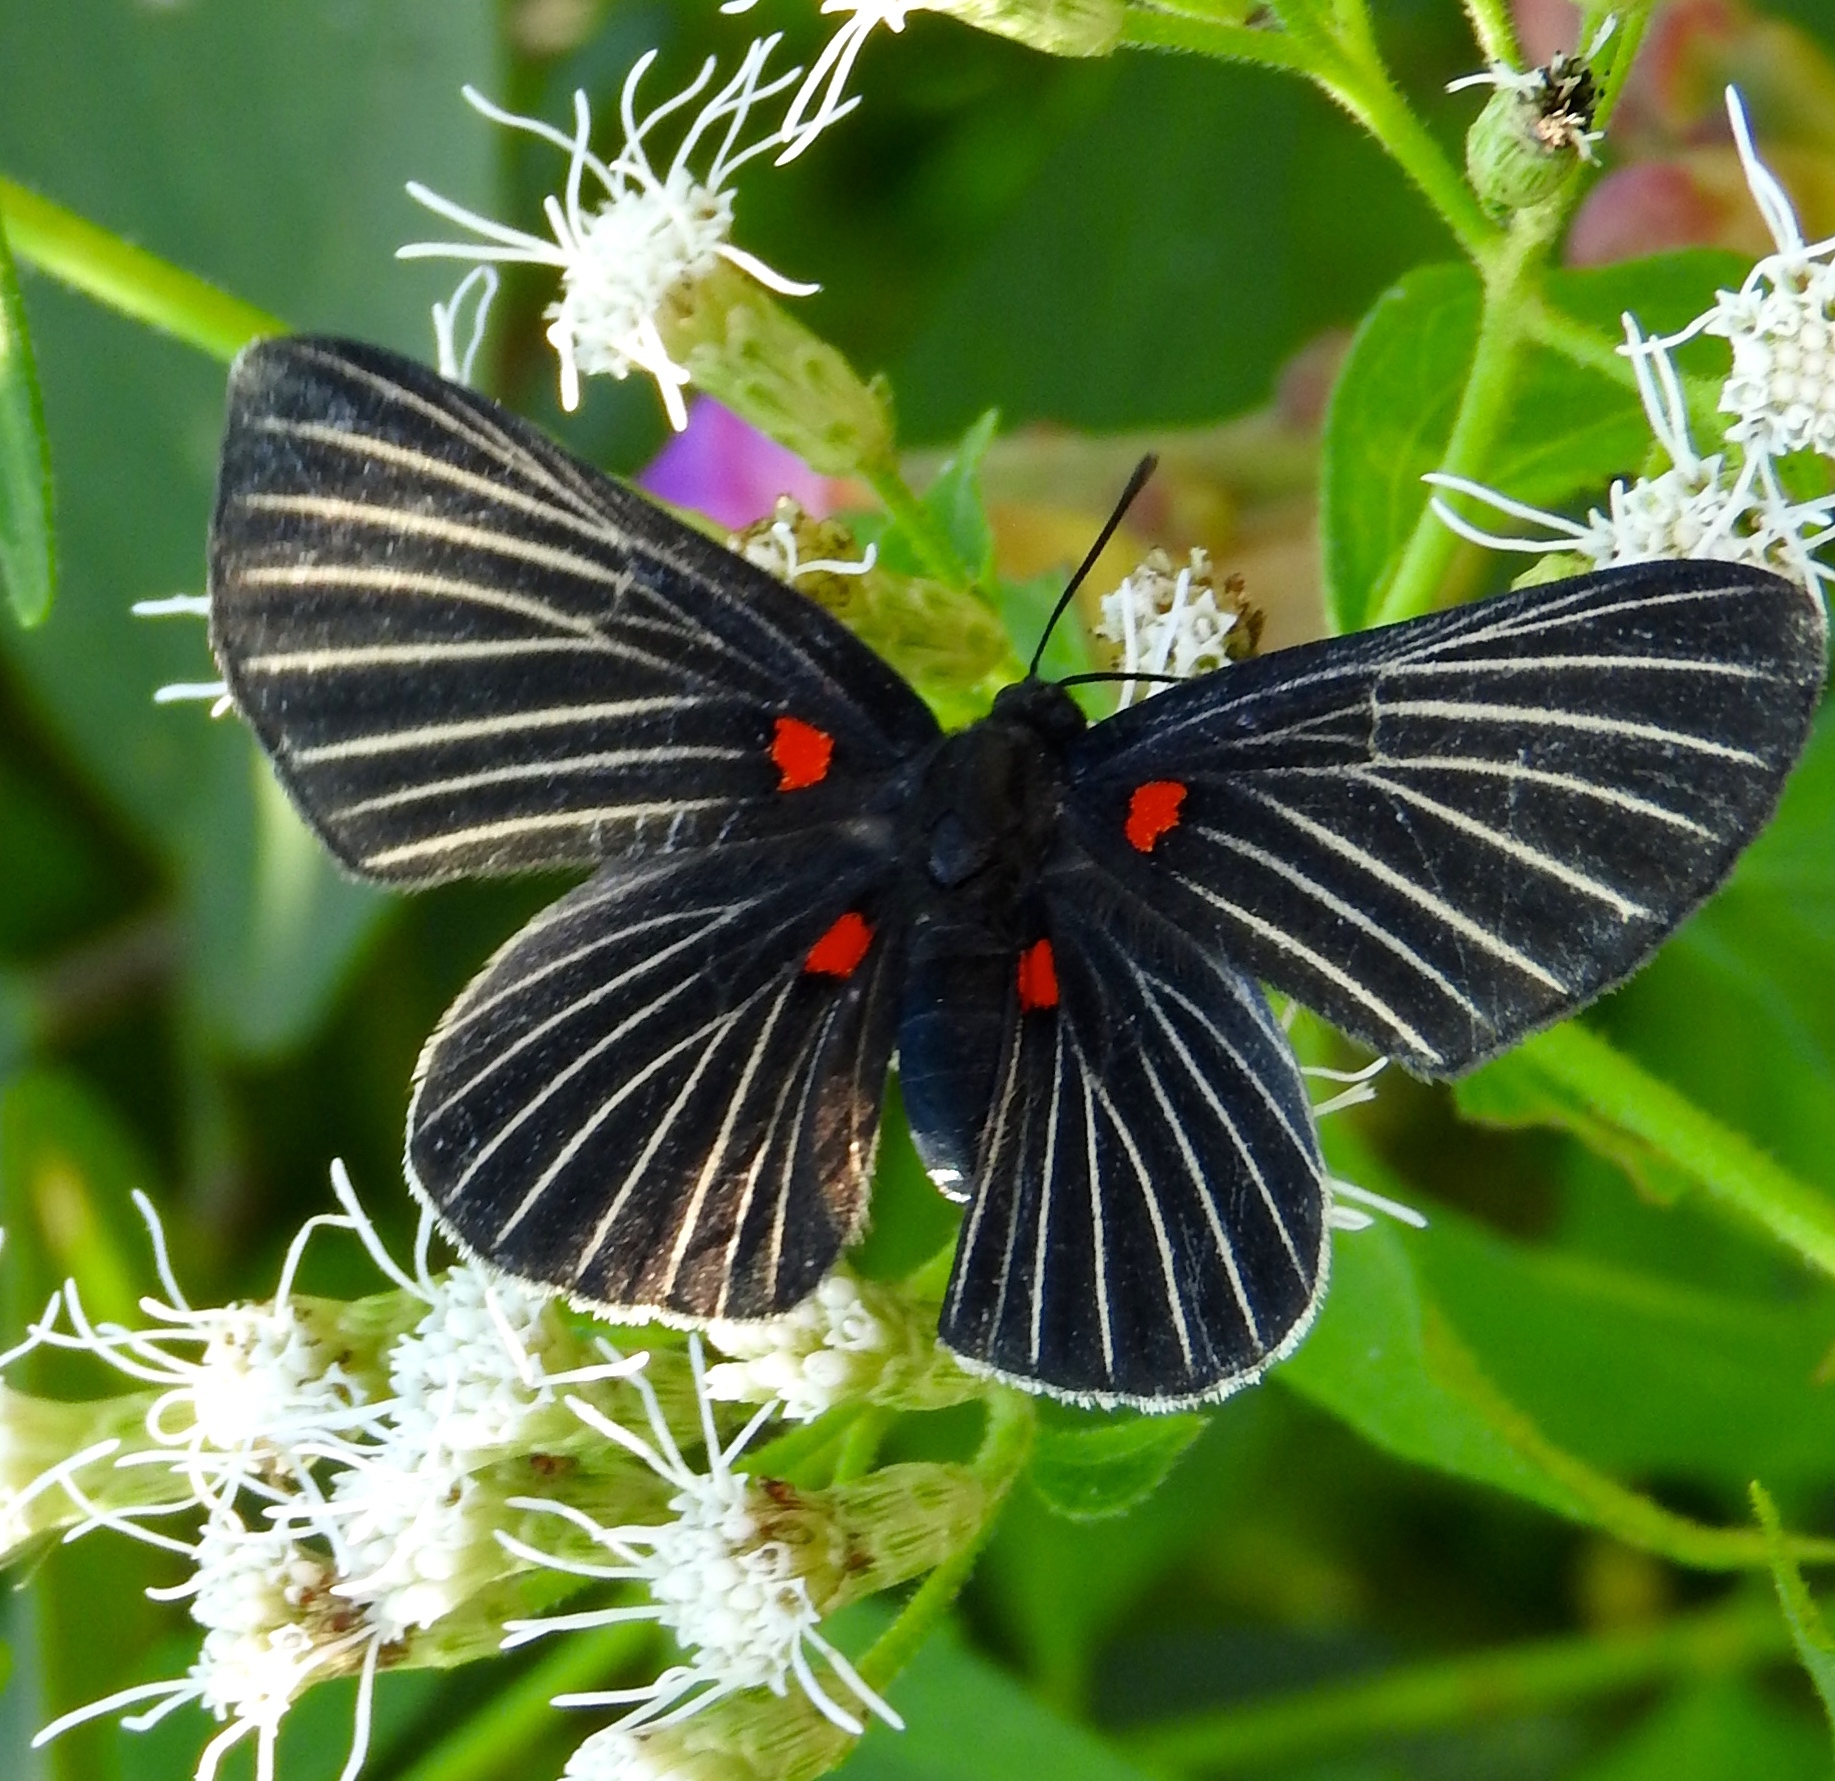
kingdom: Animalia
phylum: Arthropoda
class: Insecta
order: Lepidoptera
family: Lycaenidae
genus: Melanis
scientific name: Melanis
